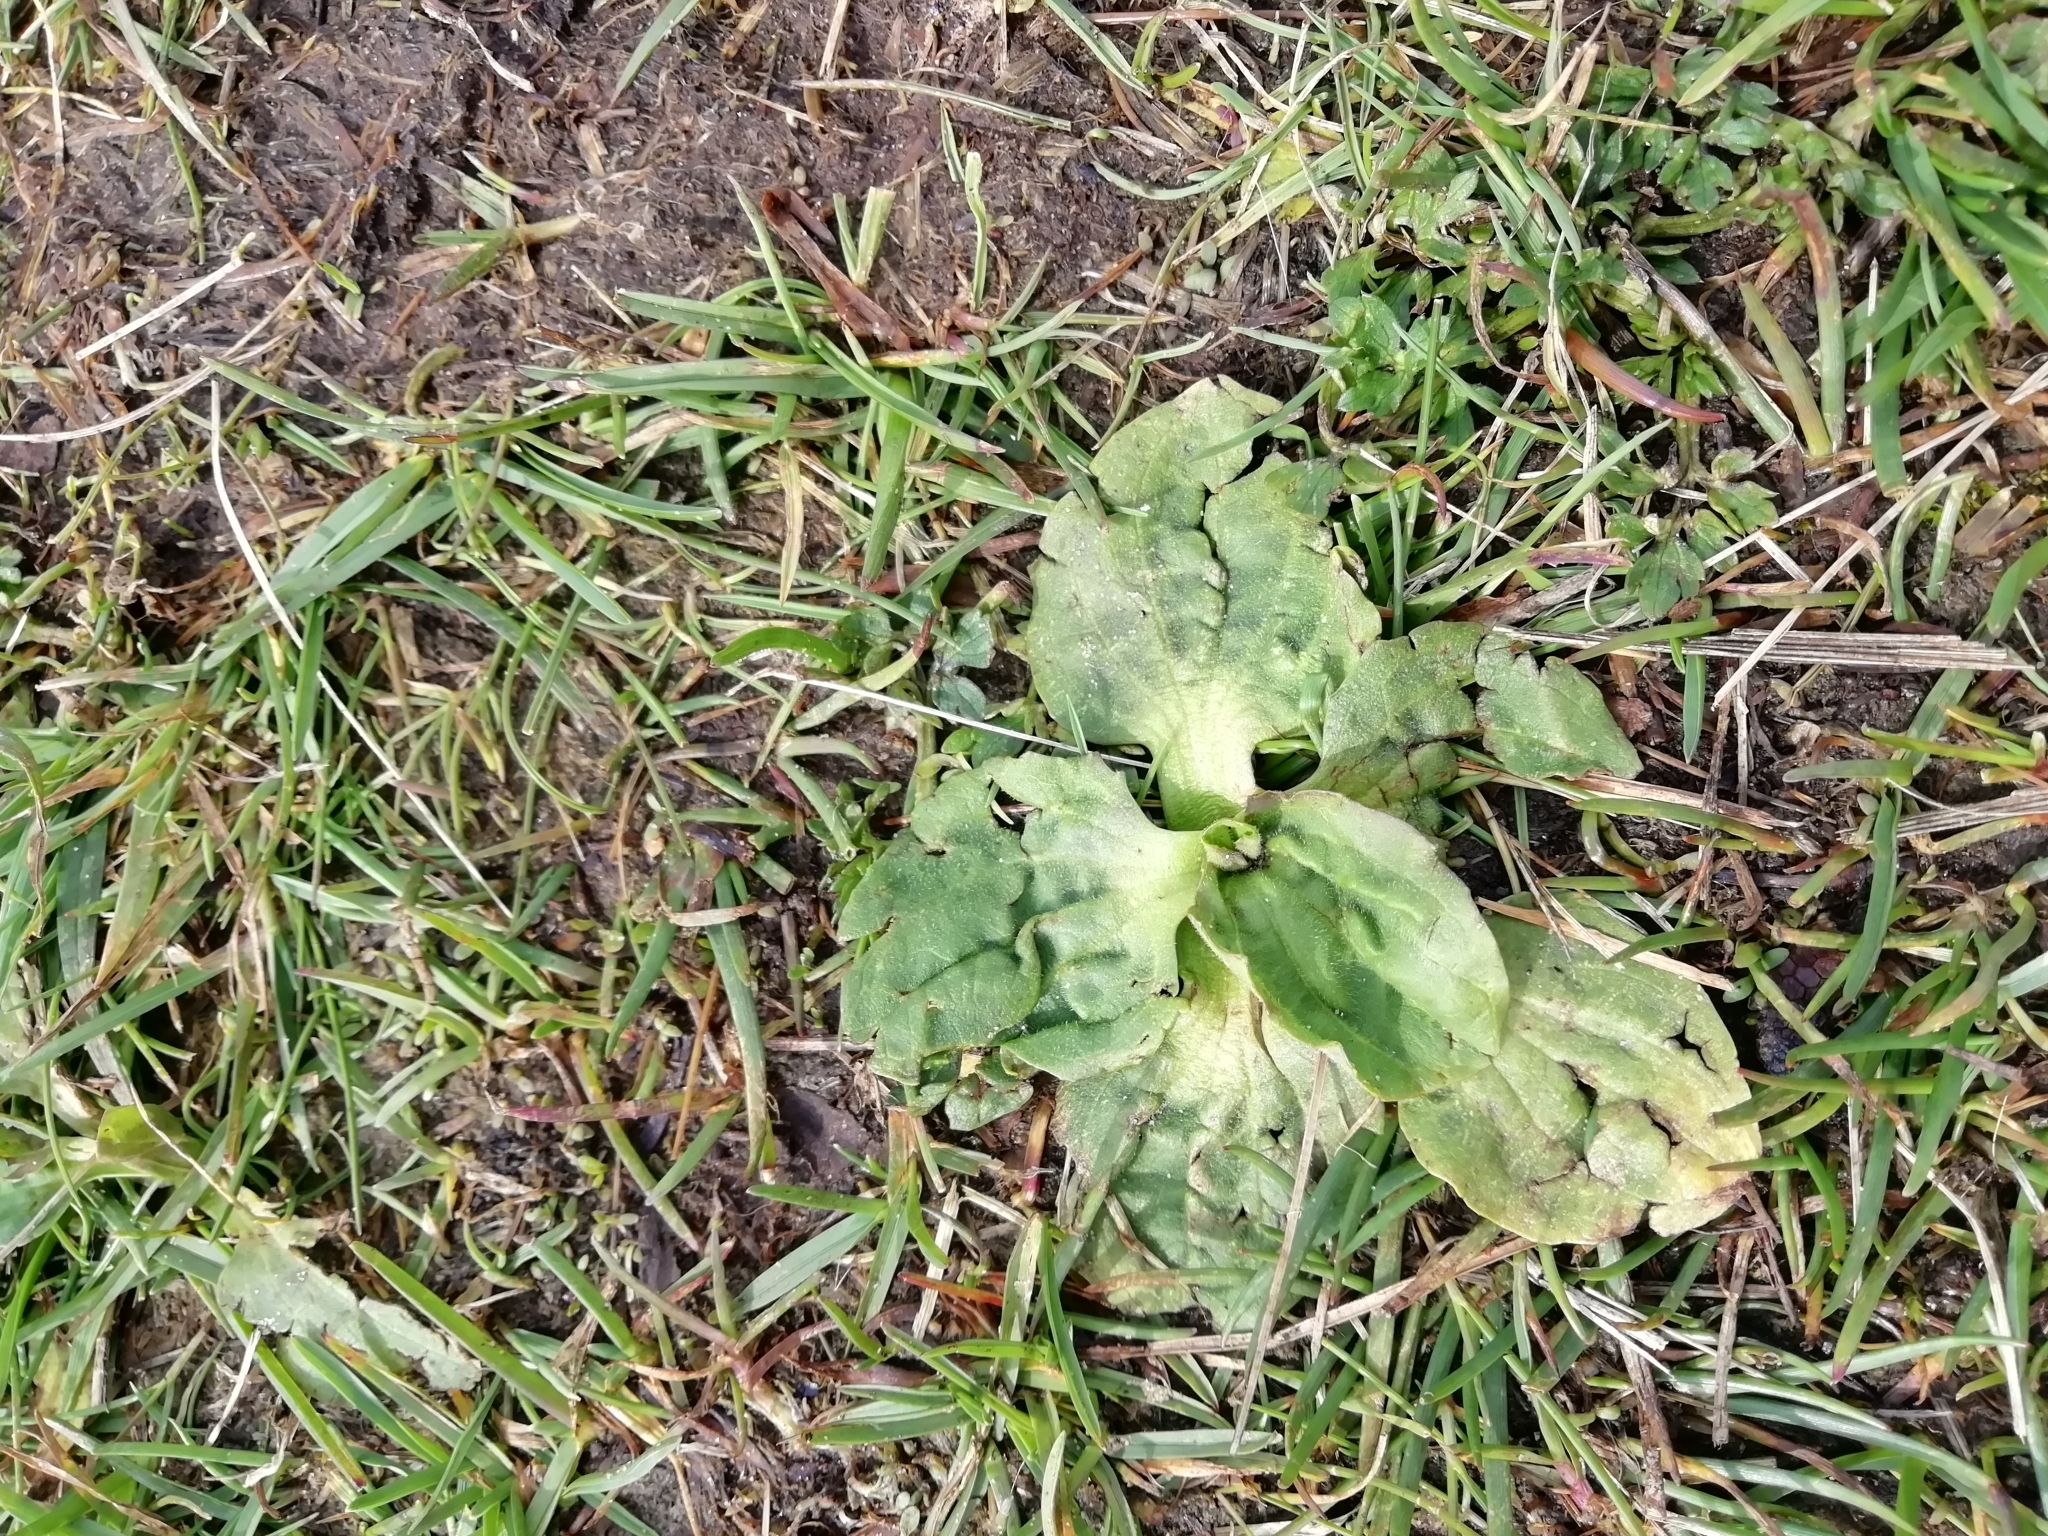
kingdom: Plantae
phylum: Tracheophyta
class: Magnoliopsida
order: Lamiales
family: Plantaginaceae
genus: Plantago
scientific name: Plantago major
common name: Common plantain
